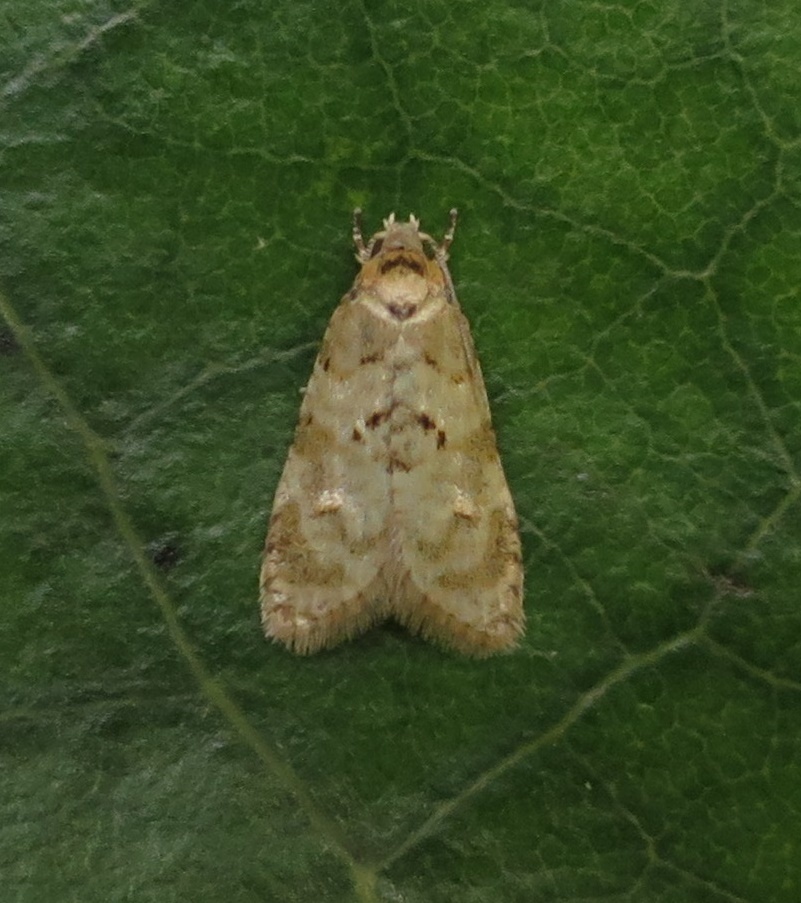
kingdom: Animalia
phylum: Arthropoda
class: Insecta
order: Lepidoptera
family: Tortricidae
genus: Dipterina
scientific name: Dipterina imbriferana
